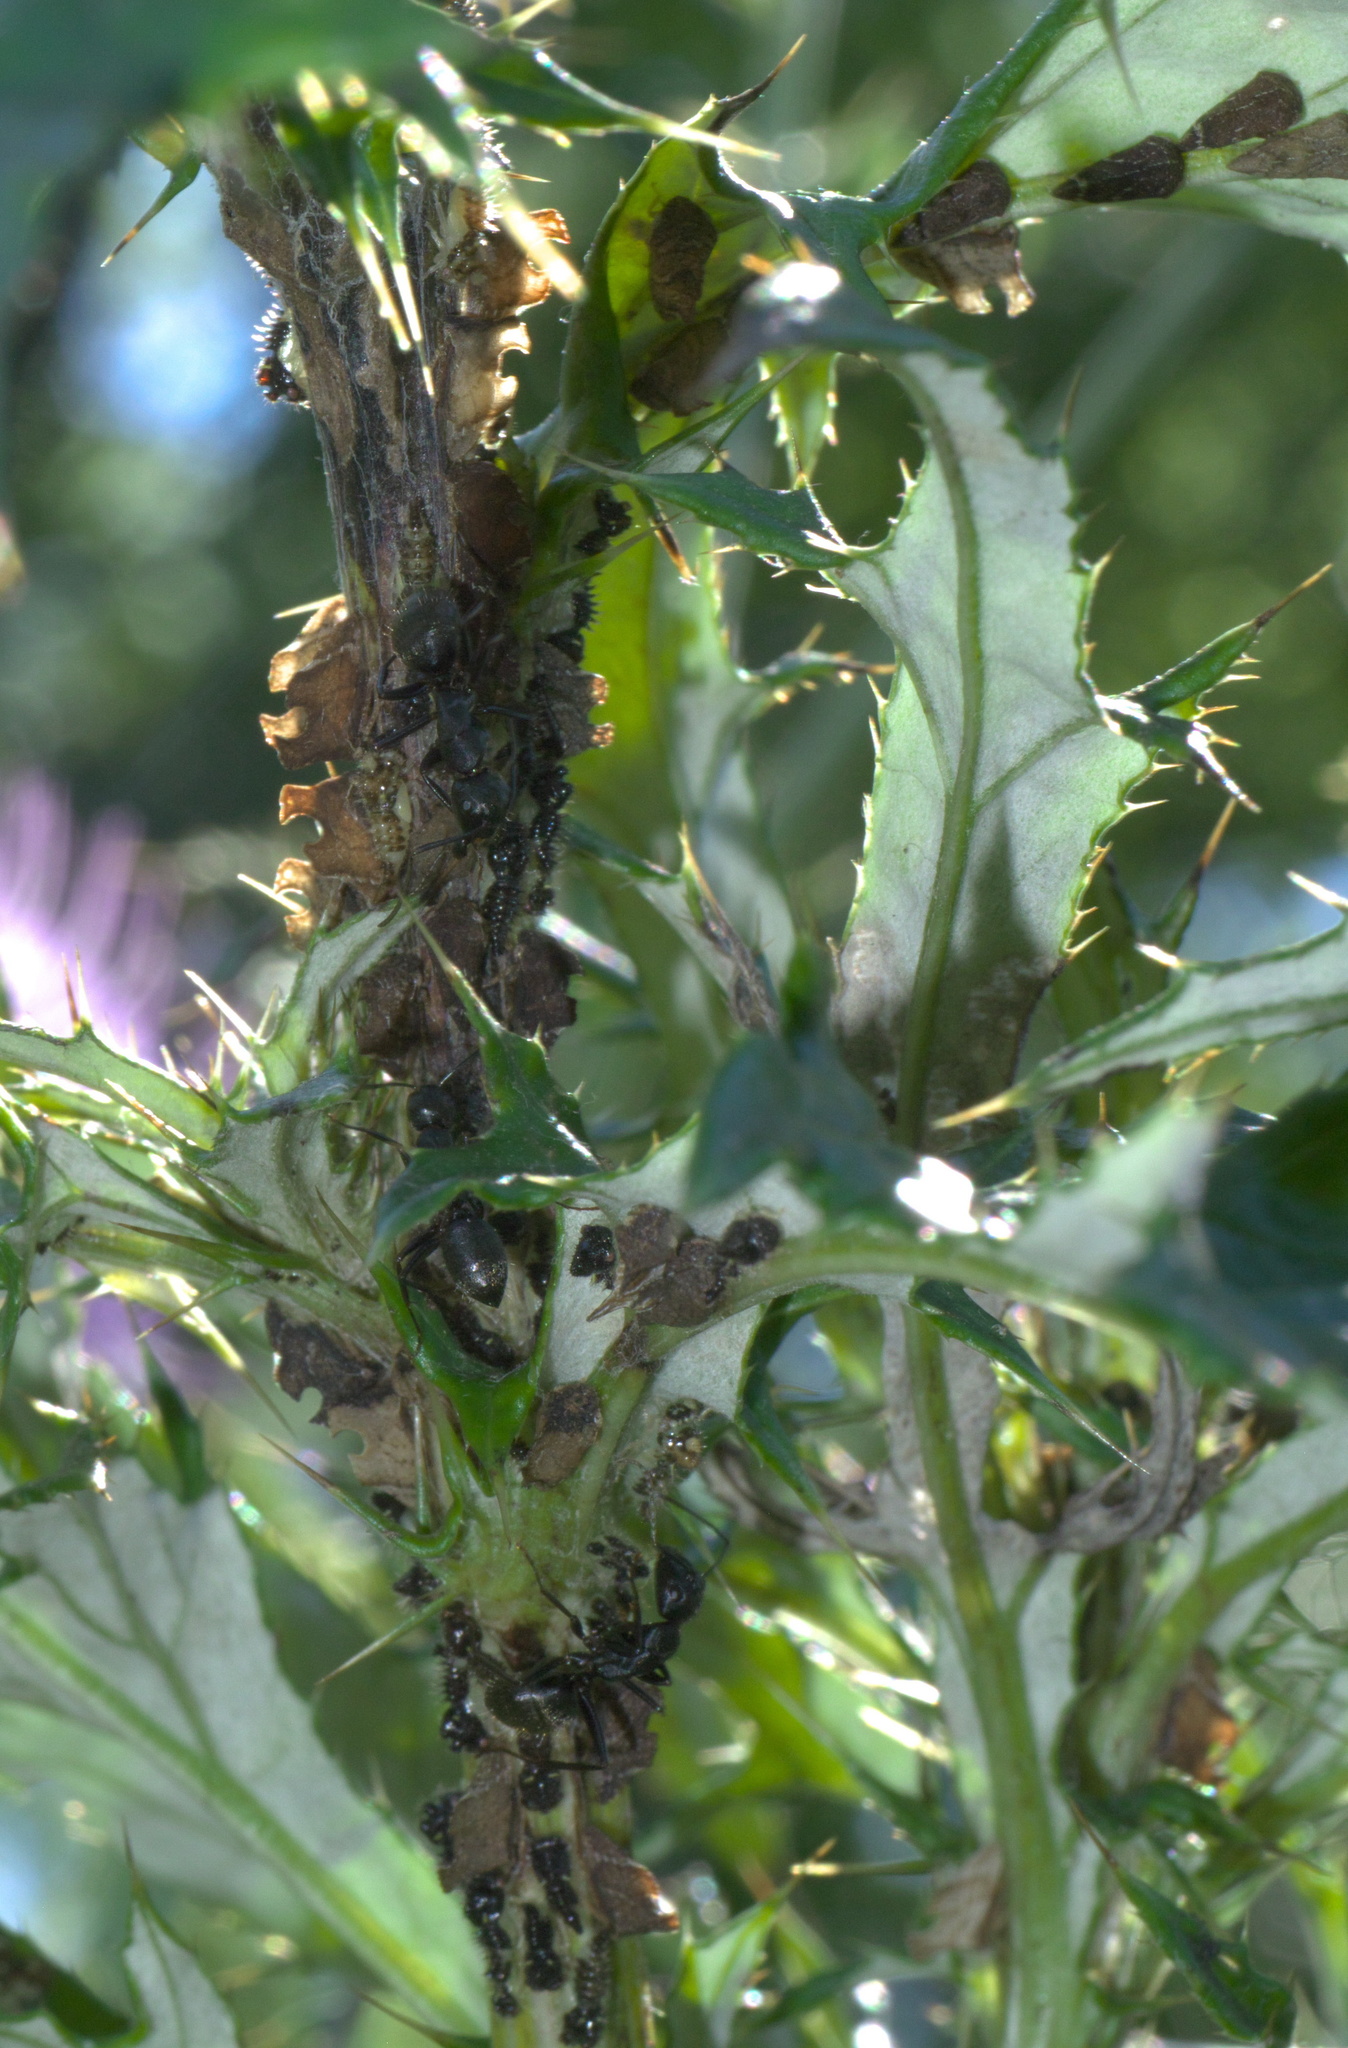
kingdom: Animalia
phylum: Arthropoda
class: Insecta
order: Hemiptera
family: Membracidae
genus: Entylia
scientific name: Entylia carinata
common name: Keeled treehopper
